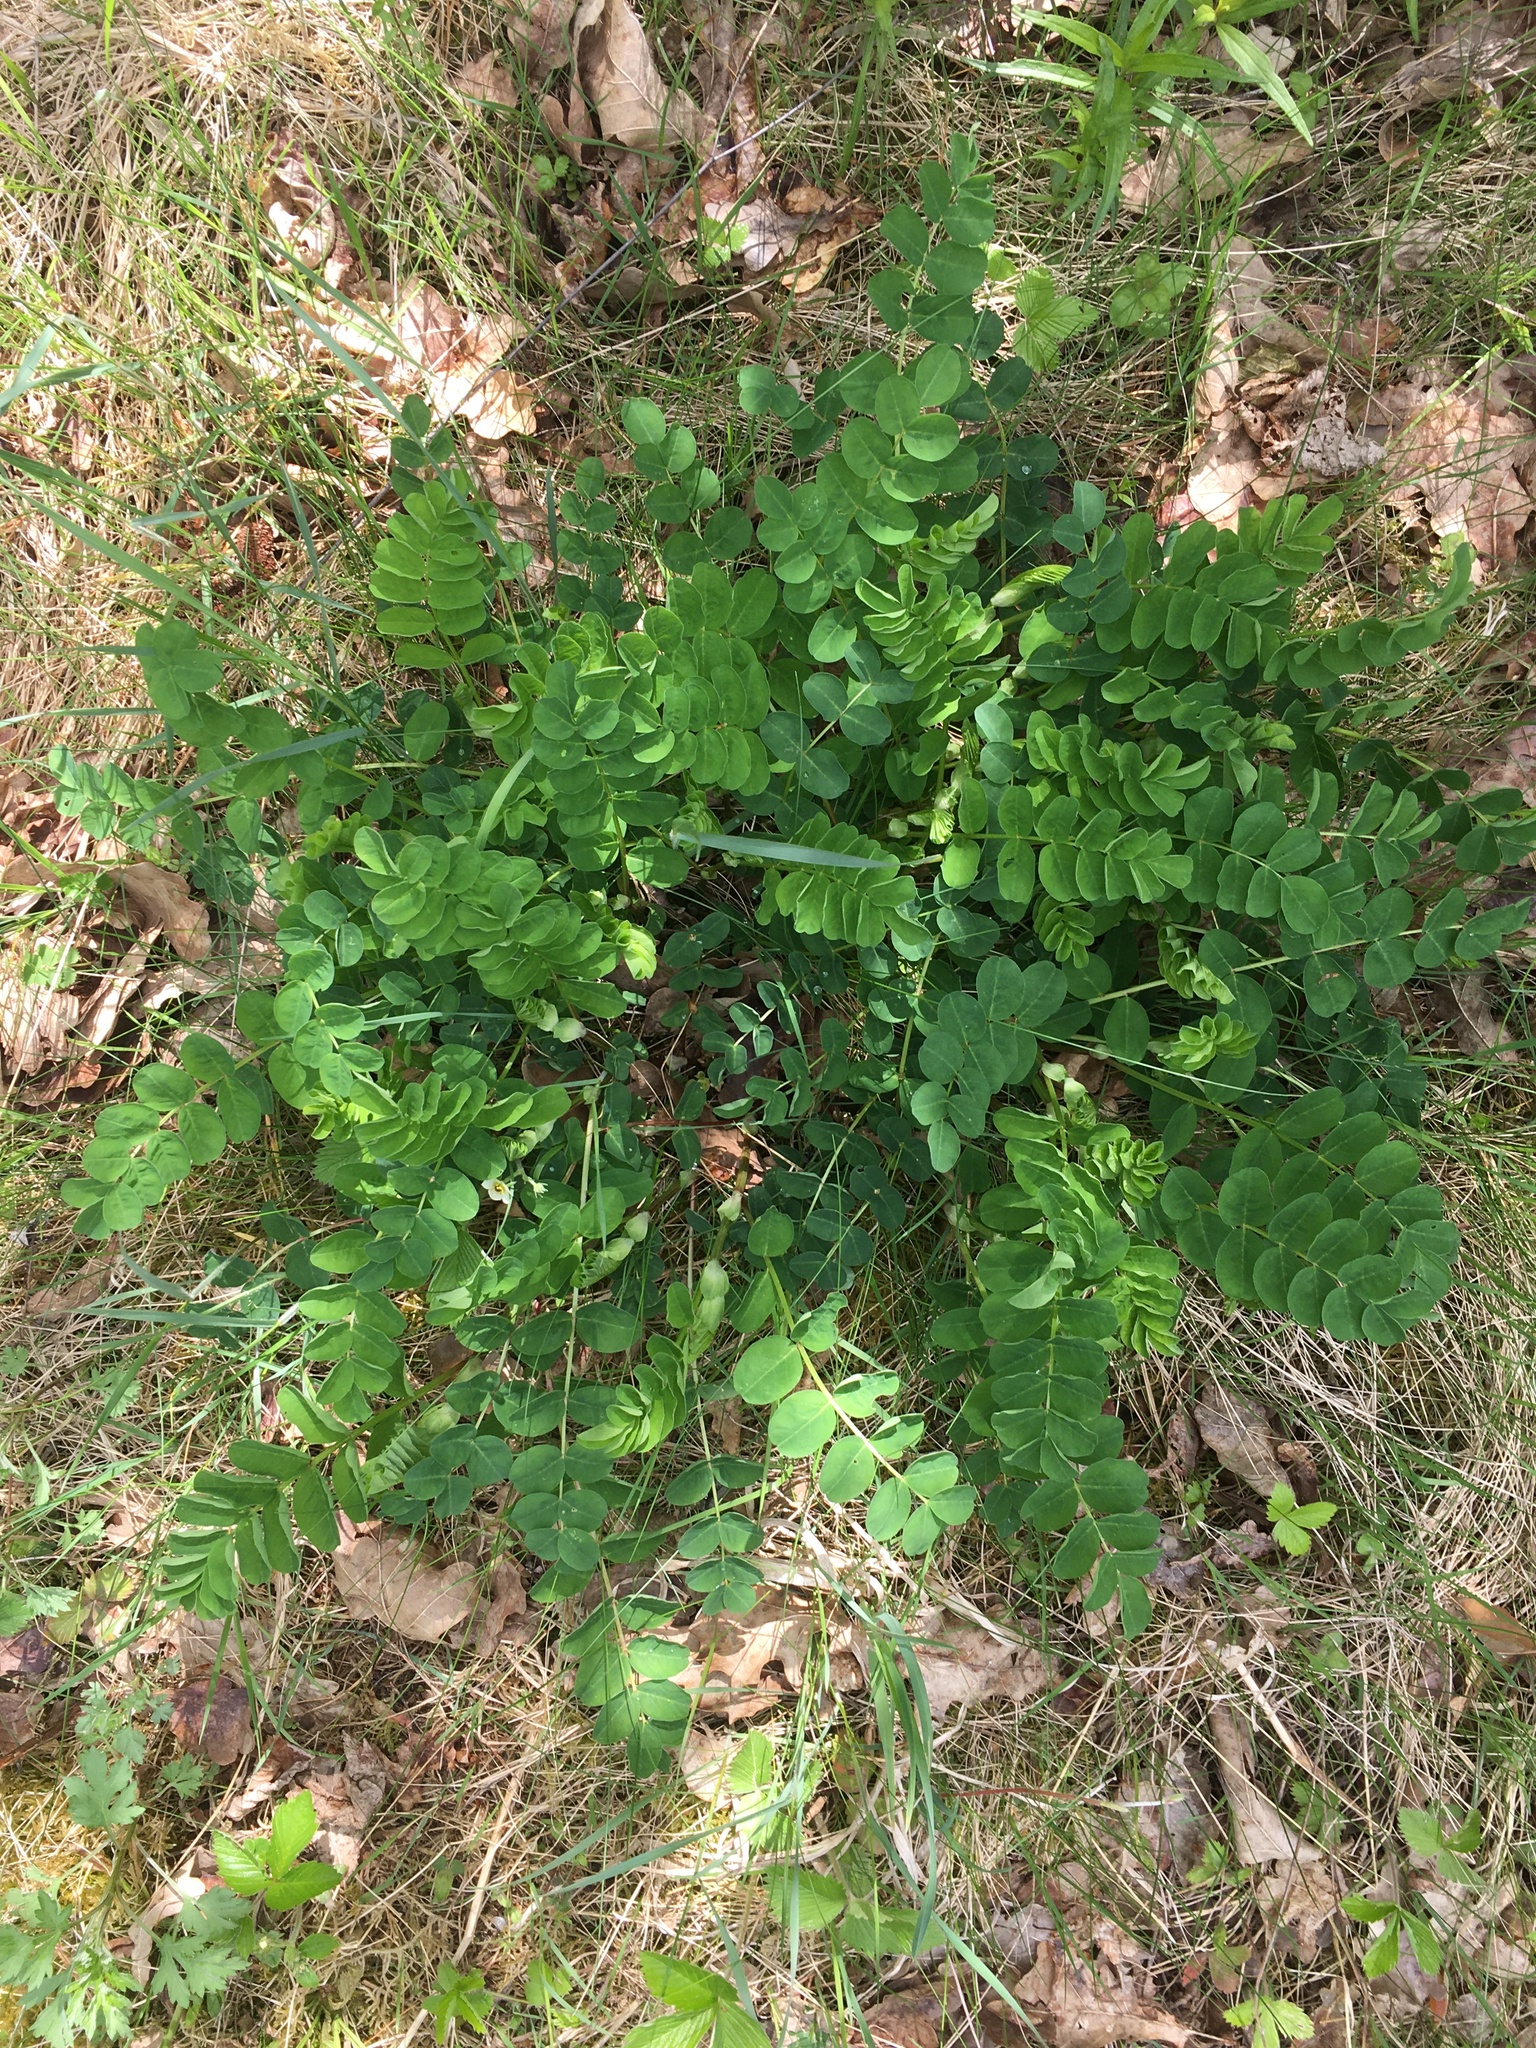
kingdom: Plantae
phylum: Tracheophyta
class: Magnoliopsida
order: Fabales
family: Fabaceae
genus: Astragalus
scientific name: Astragalus glycyphyllos
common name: Wild liquorice
